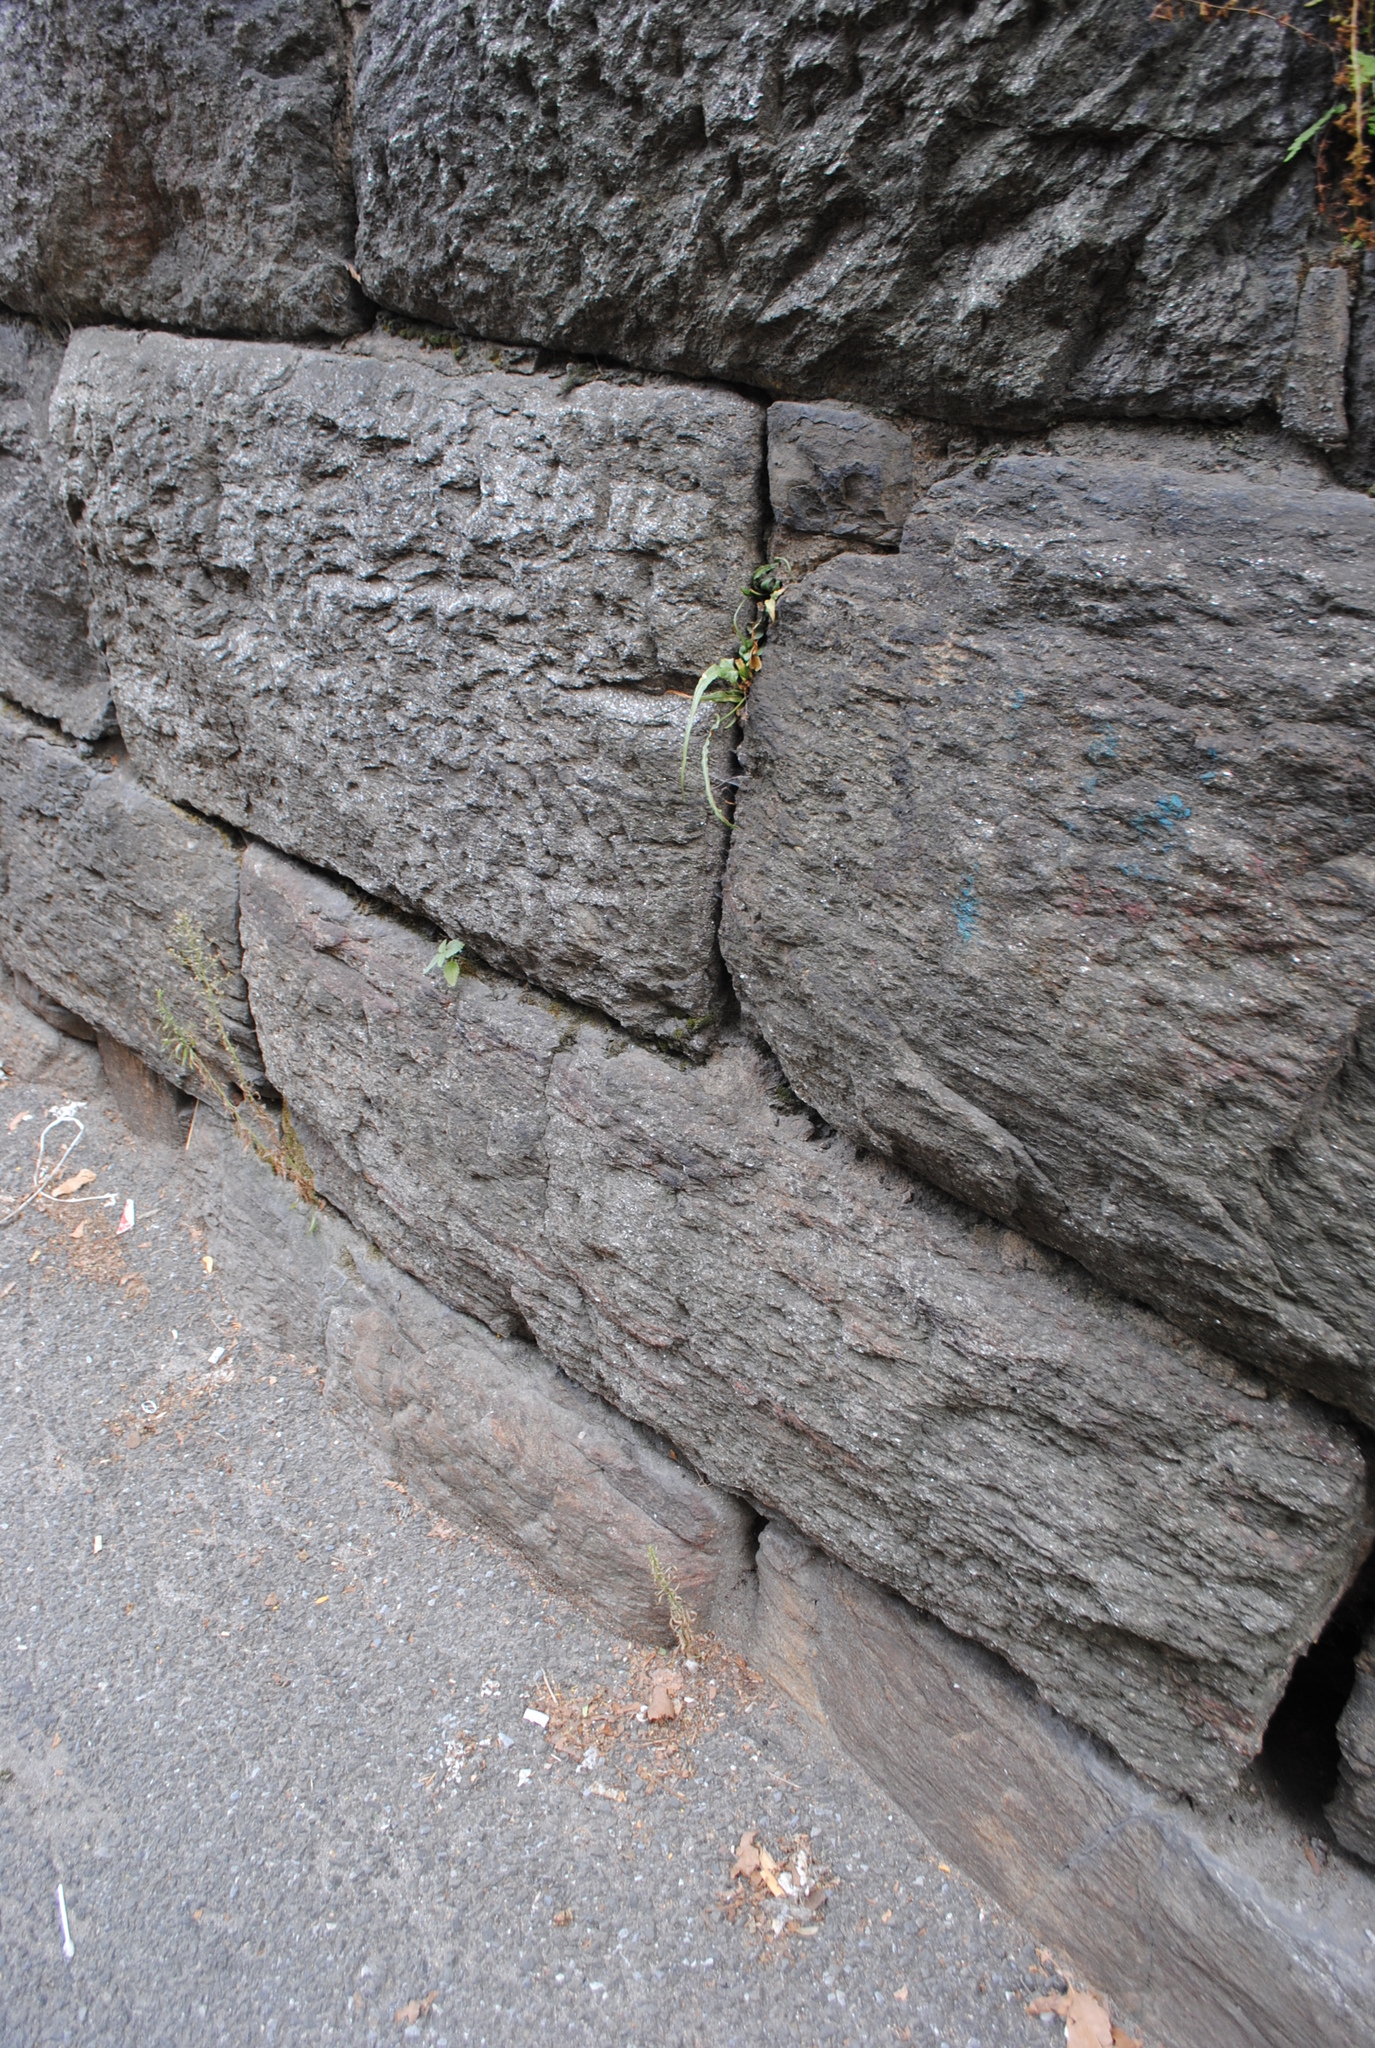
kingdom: Plantae
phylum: Tracheophyta
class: Polypodiopsida
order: Polypodiales
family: Aspleniaceae
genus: Asplenium
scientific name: Asplenium rhizophyllum
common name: Walking fern
